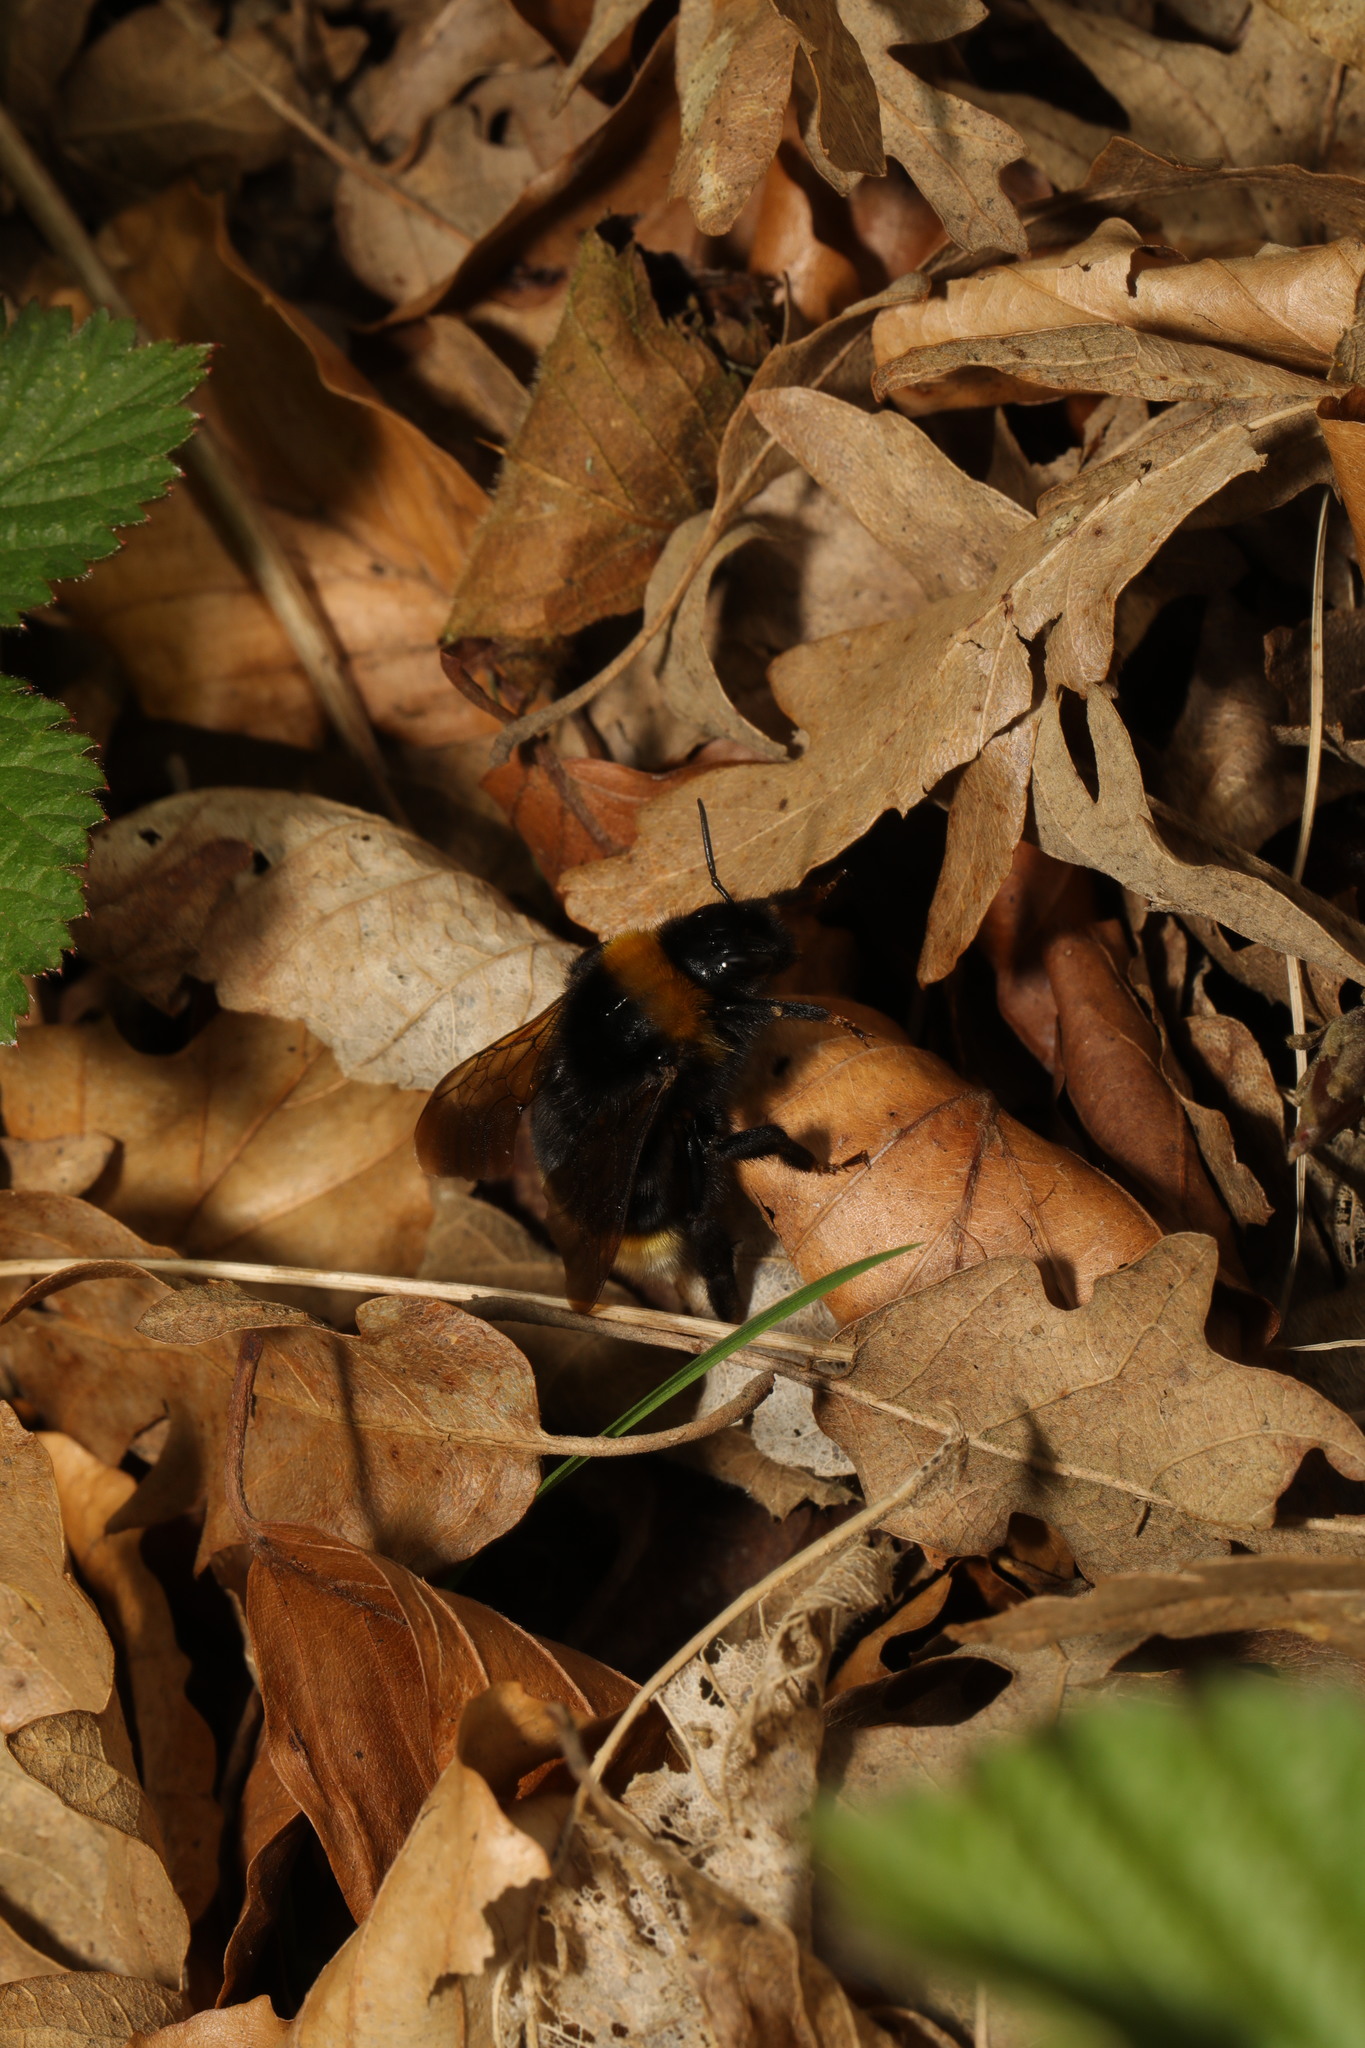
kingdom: Animalia
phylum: Arthropoda
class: Insecta
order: Hymenoptera
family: Apidae
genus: Bombus
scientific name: Bombus vestalis
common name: Vestal cuckoo bee
